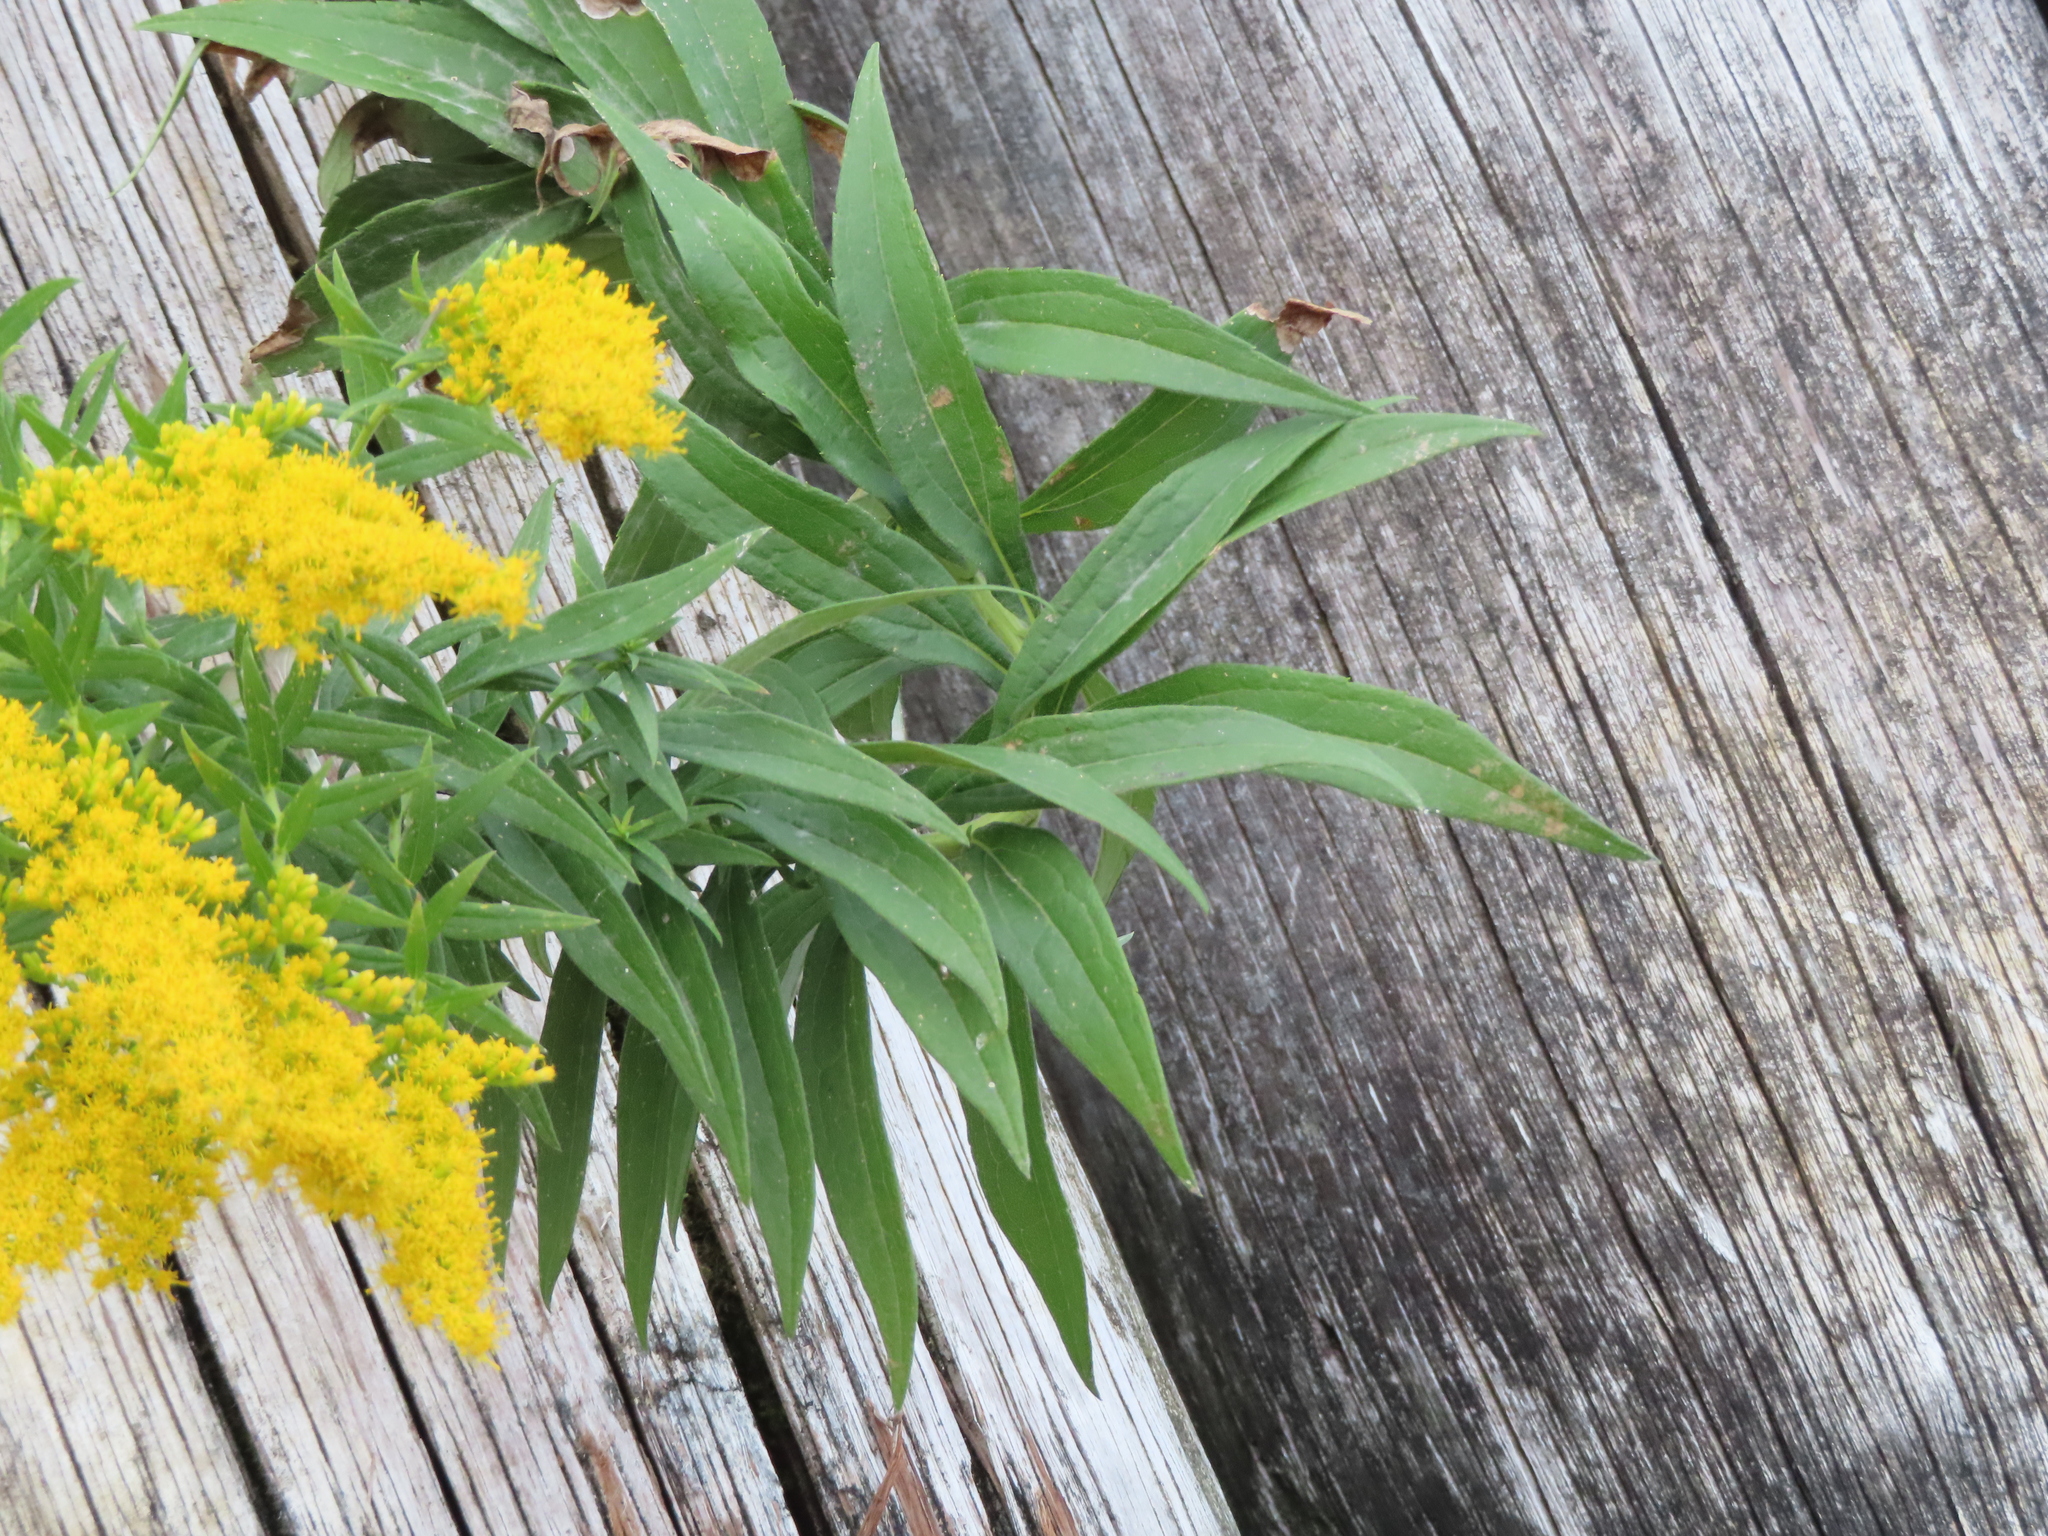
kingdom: Plantae
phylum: Tracheophyta
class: Magnoliopsida
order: Asterales
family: Asteraceae
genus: Solidago
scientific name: Solidago
